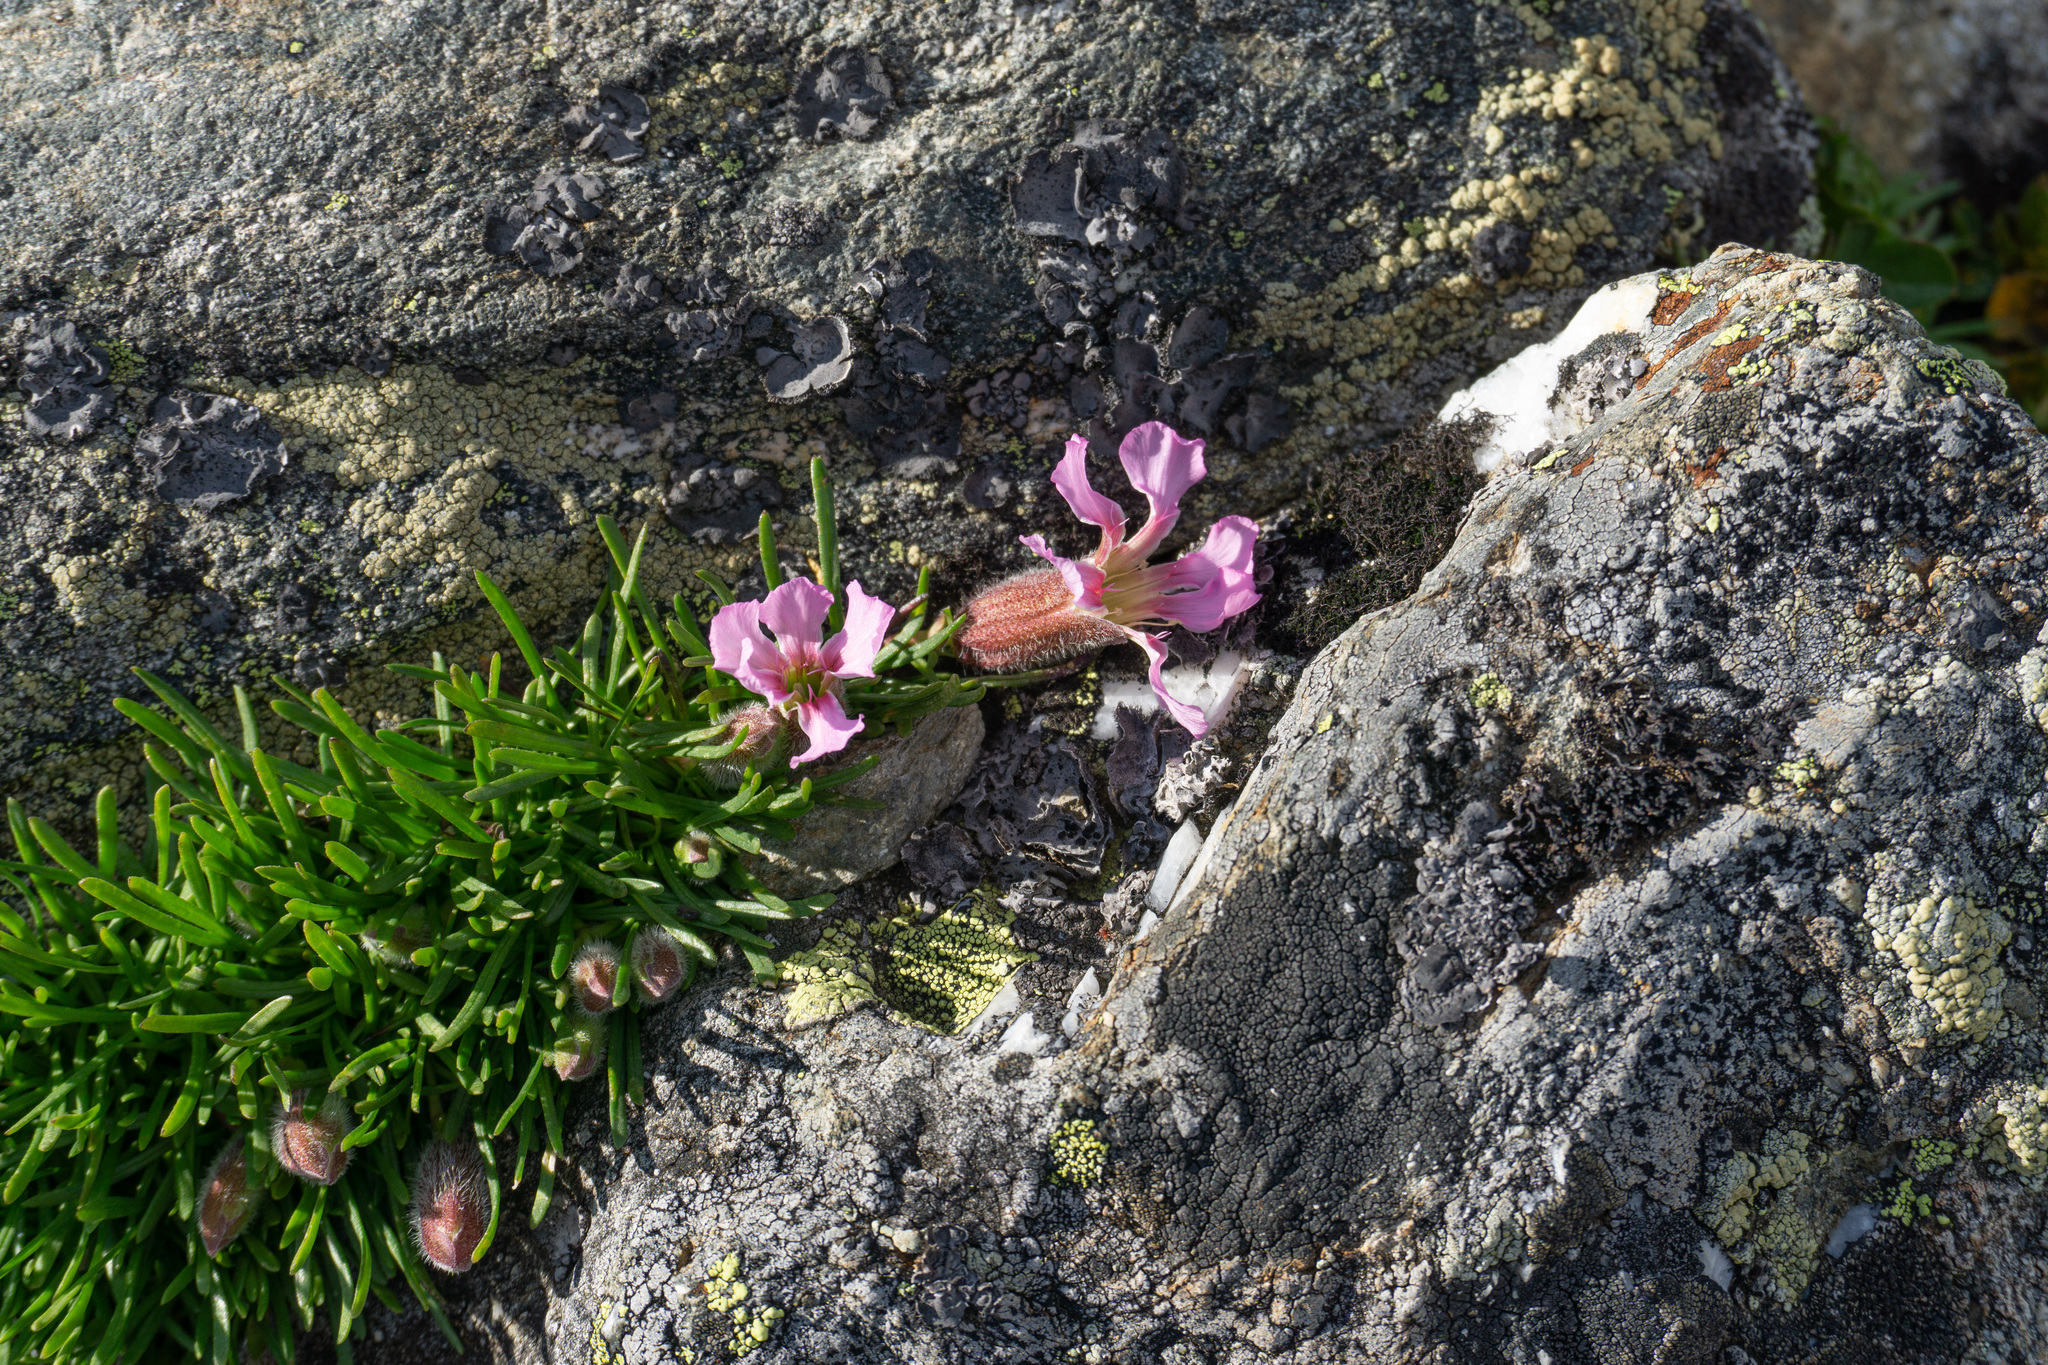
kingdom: Plantae
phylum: Tracheophyta
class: Magnoliopsida
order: Caryophyllales
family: Caryophyllaceae
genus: Saponaria
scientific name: Saponaria pumila
